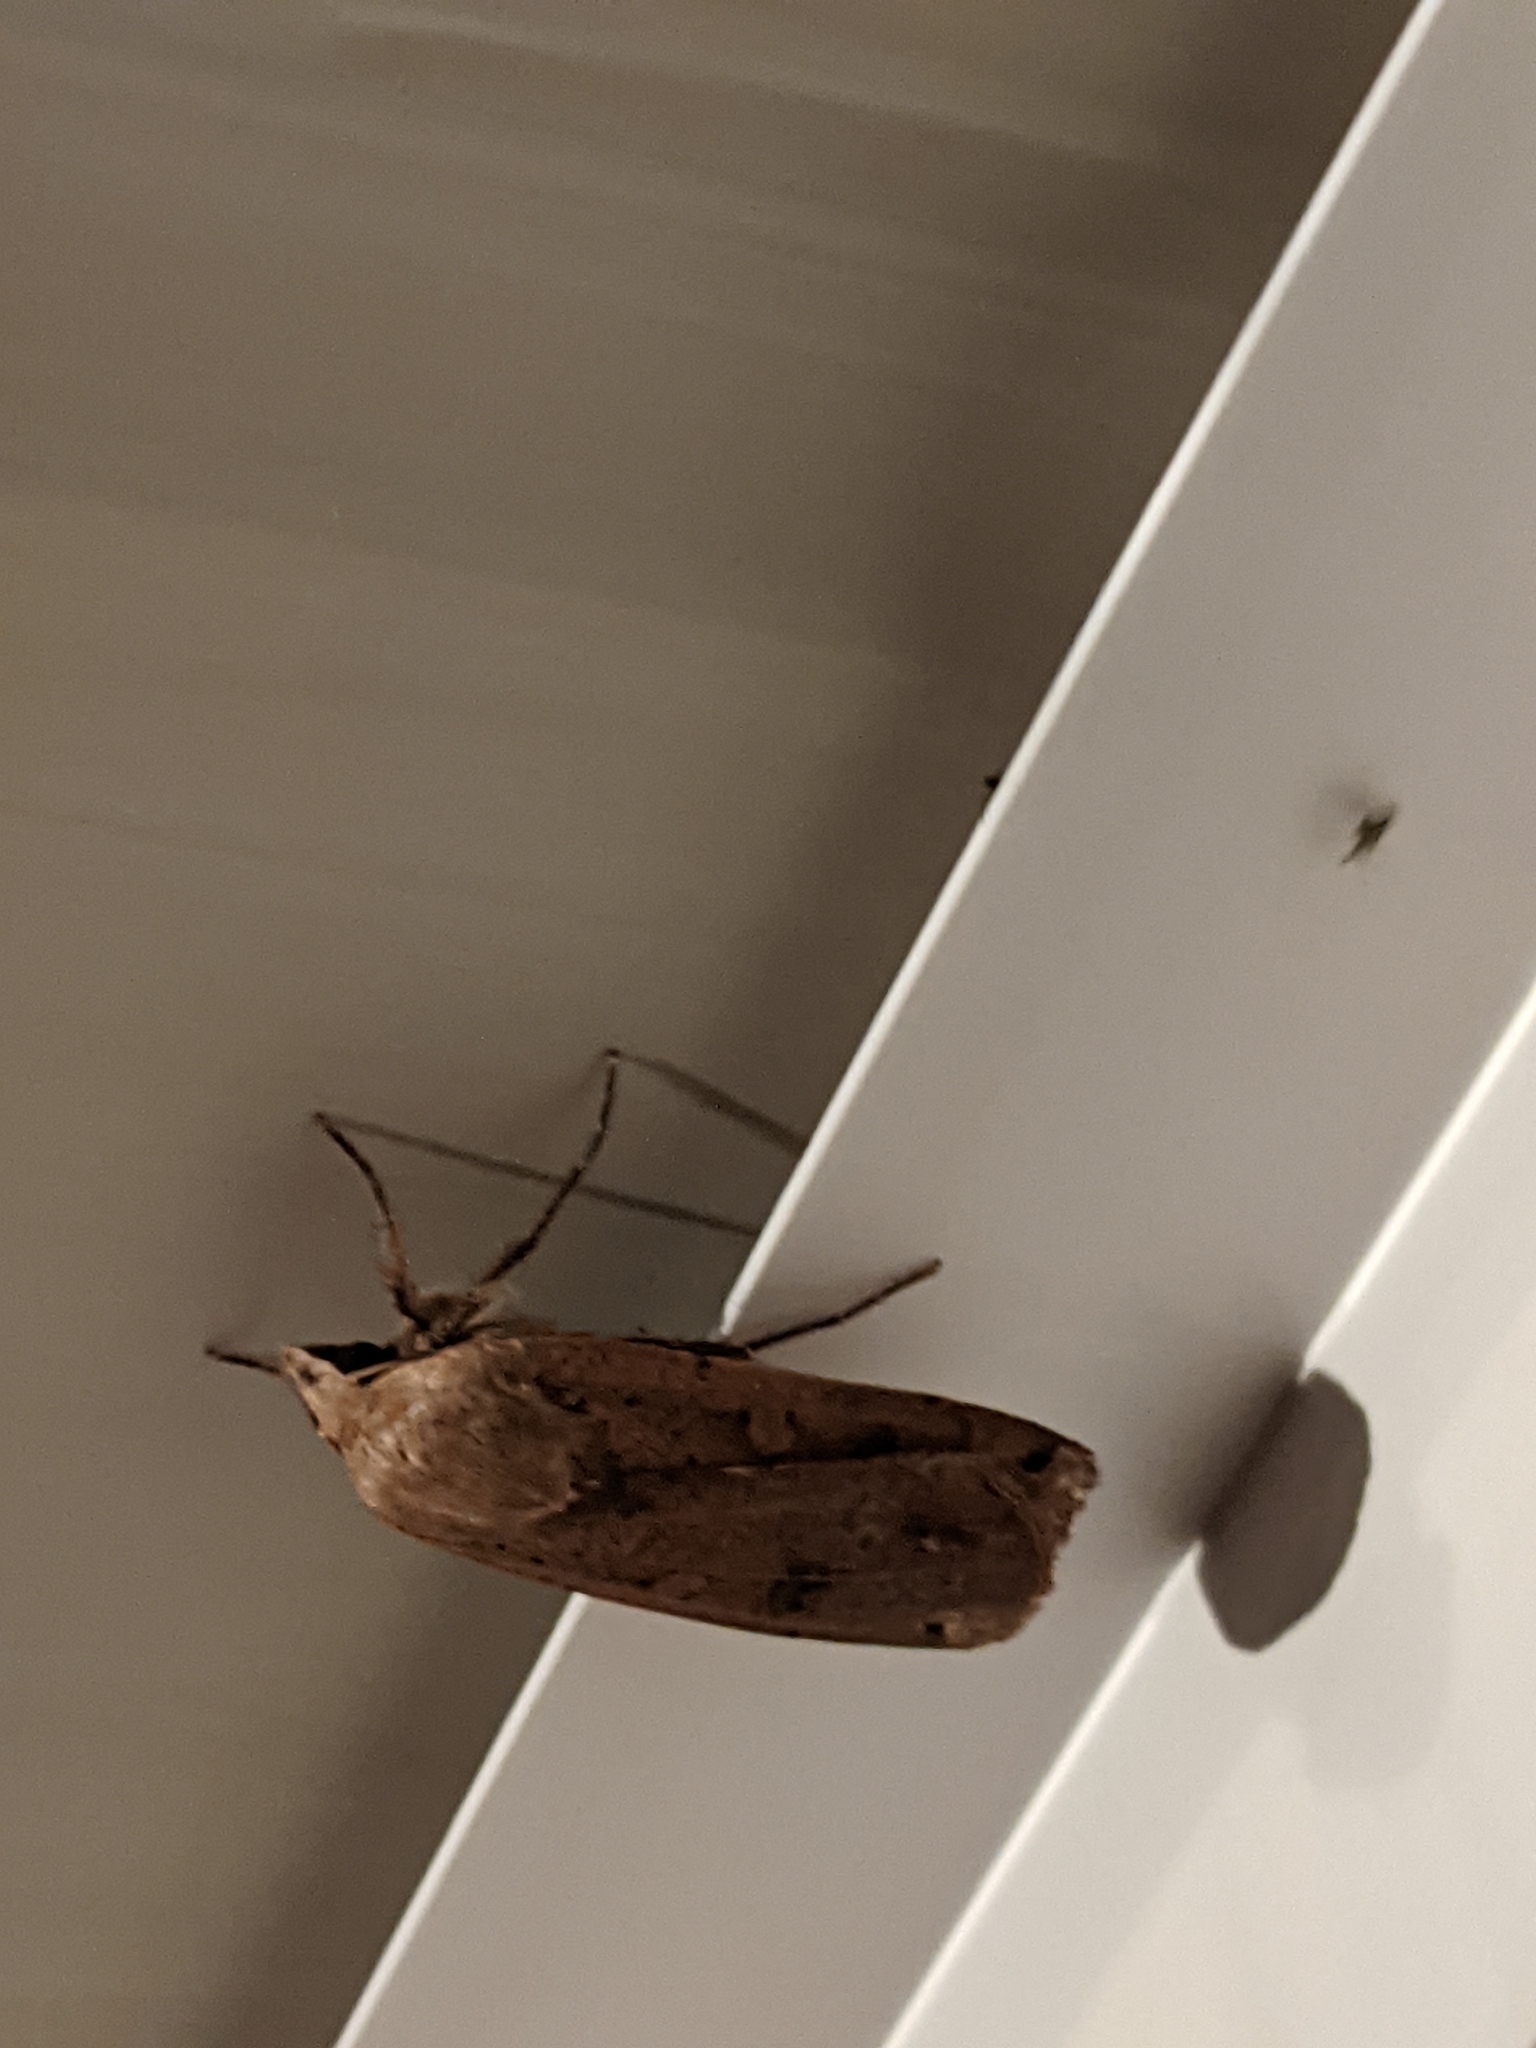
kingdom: Animalia
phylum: Arthropoda
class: Insecta
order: Lepidoptera
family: Noctuidae
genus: Noctua
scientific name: Noctua pronuba
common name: Large yellow underwing
